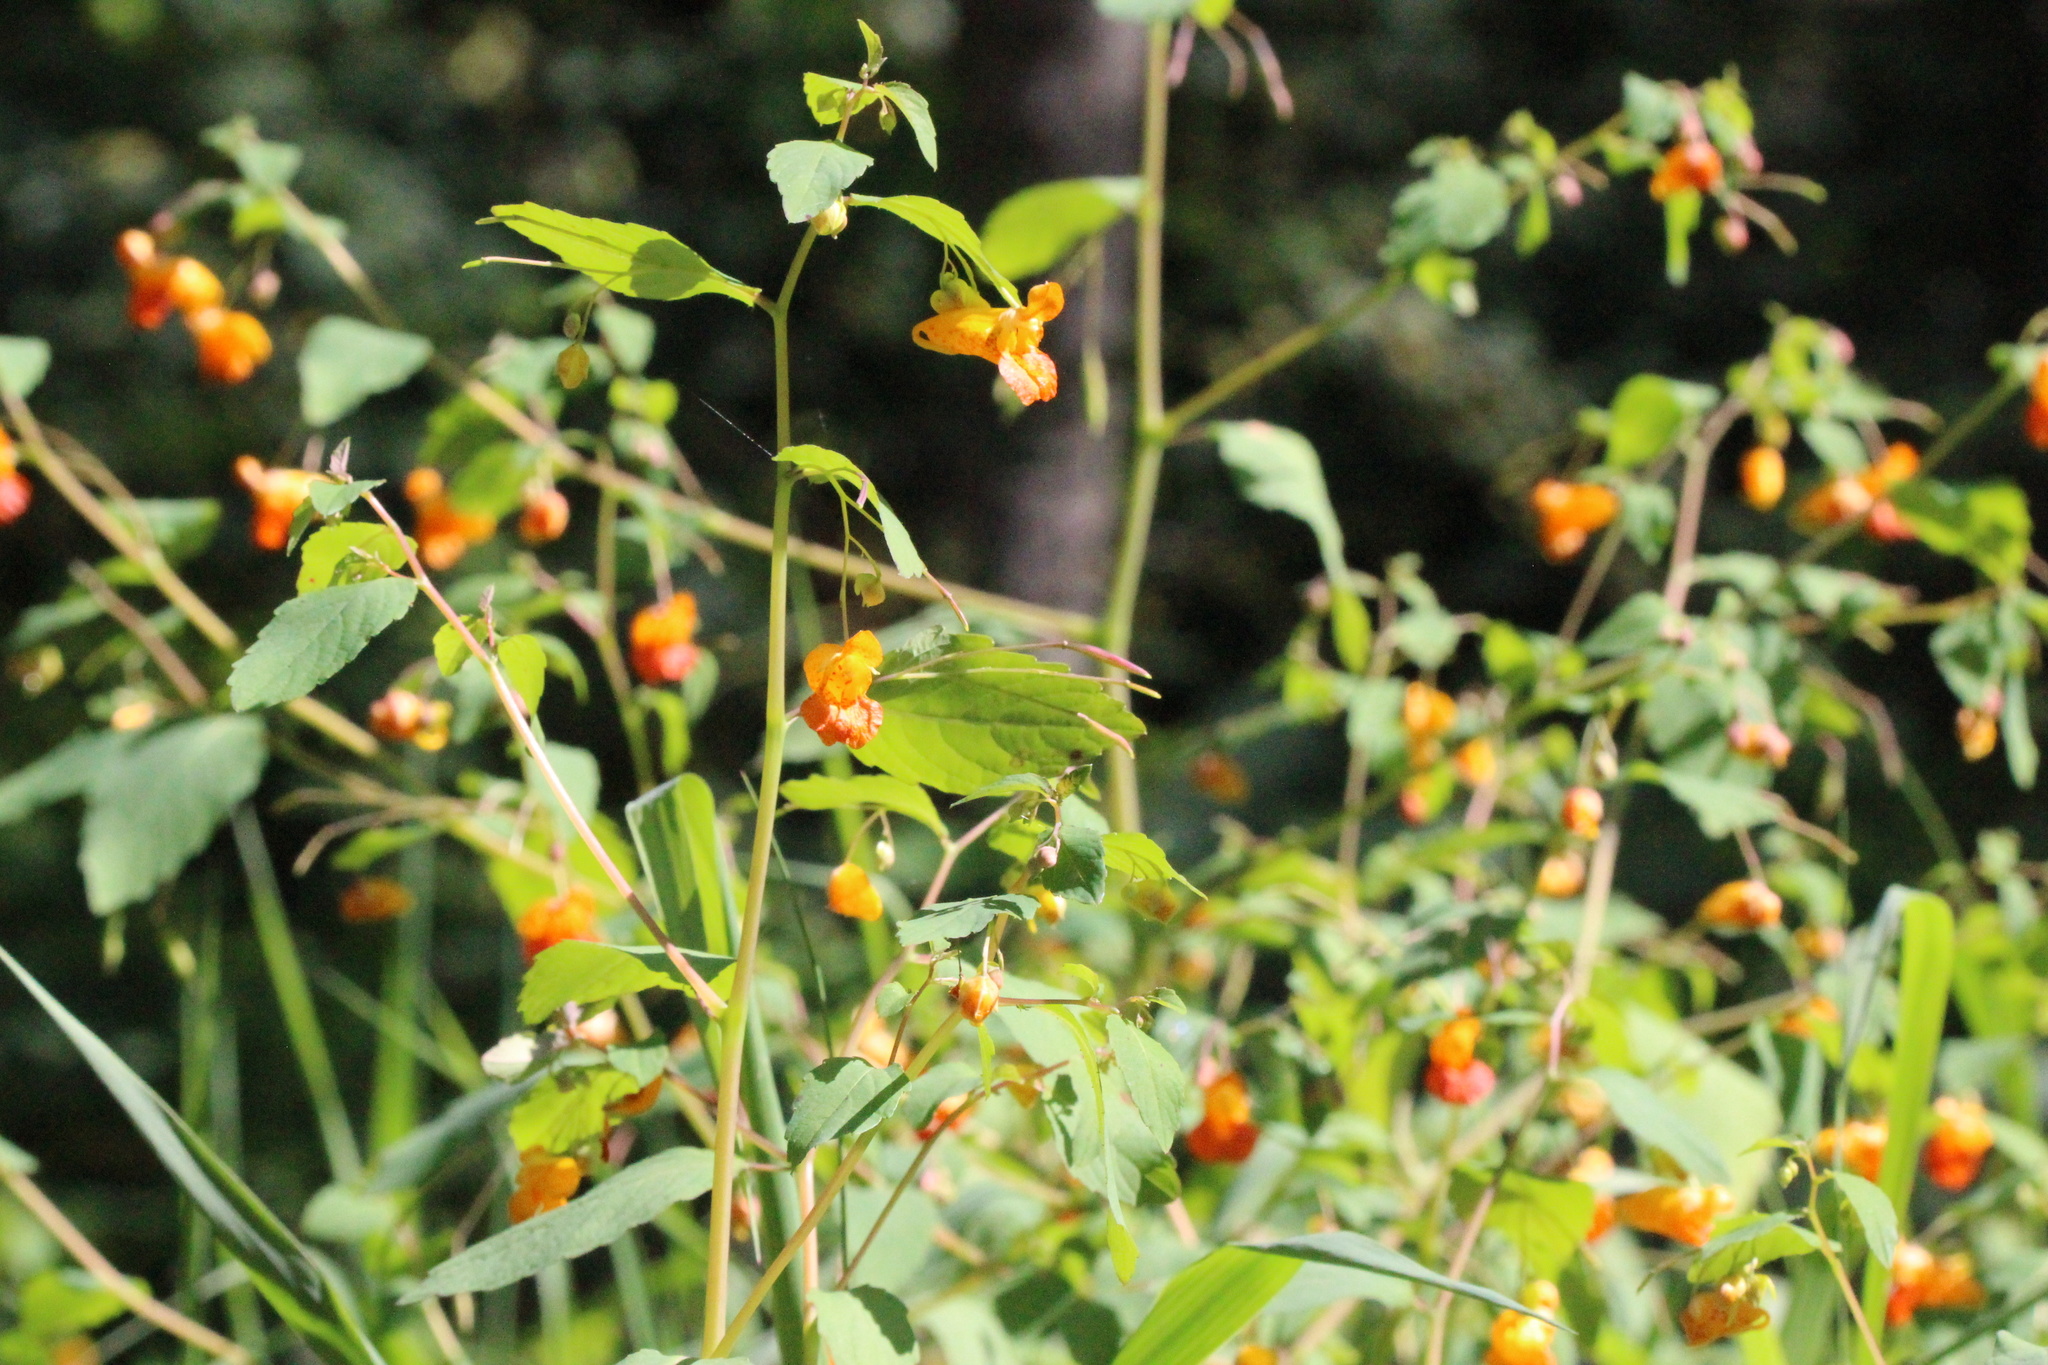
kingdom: Plantae
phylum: Tracheophyta
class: Magnoliopsida
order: Ericales
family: Balsaminaceae
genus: Impatiens
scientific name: Impatiens capensis
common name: Orange balsam
